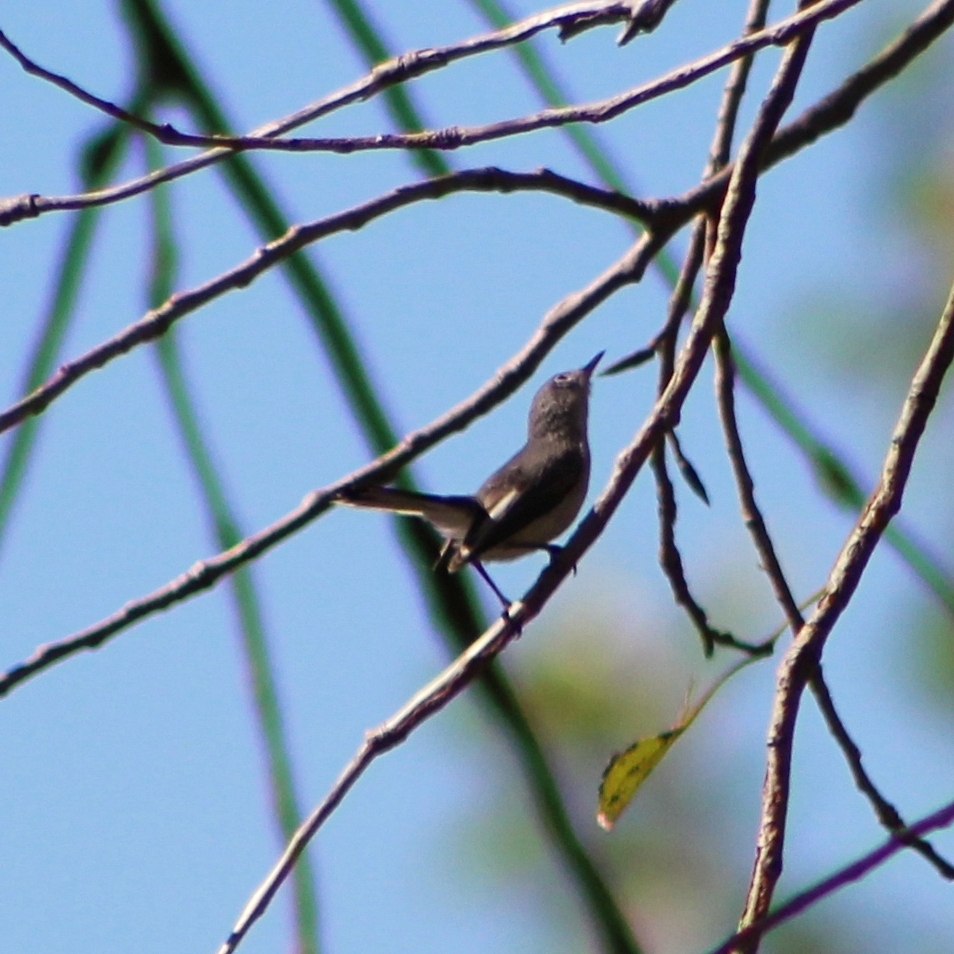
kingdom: Animalia
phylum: Chordata
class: Aves
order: Passeriformes
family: Polioptilidae
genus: Polioptila
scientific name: Polioptila caerulea
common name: Blue-gray gnatcatcher
